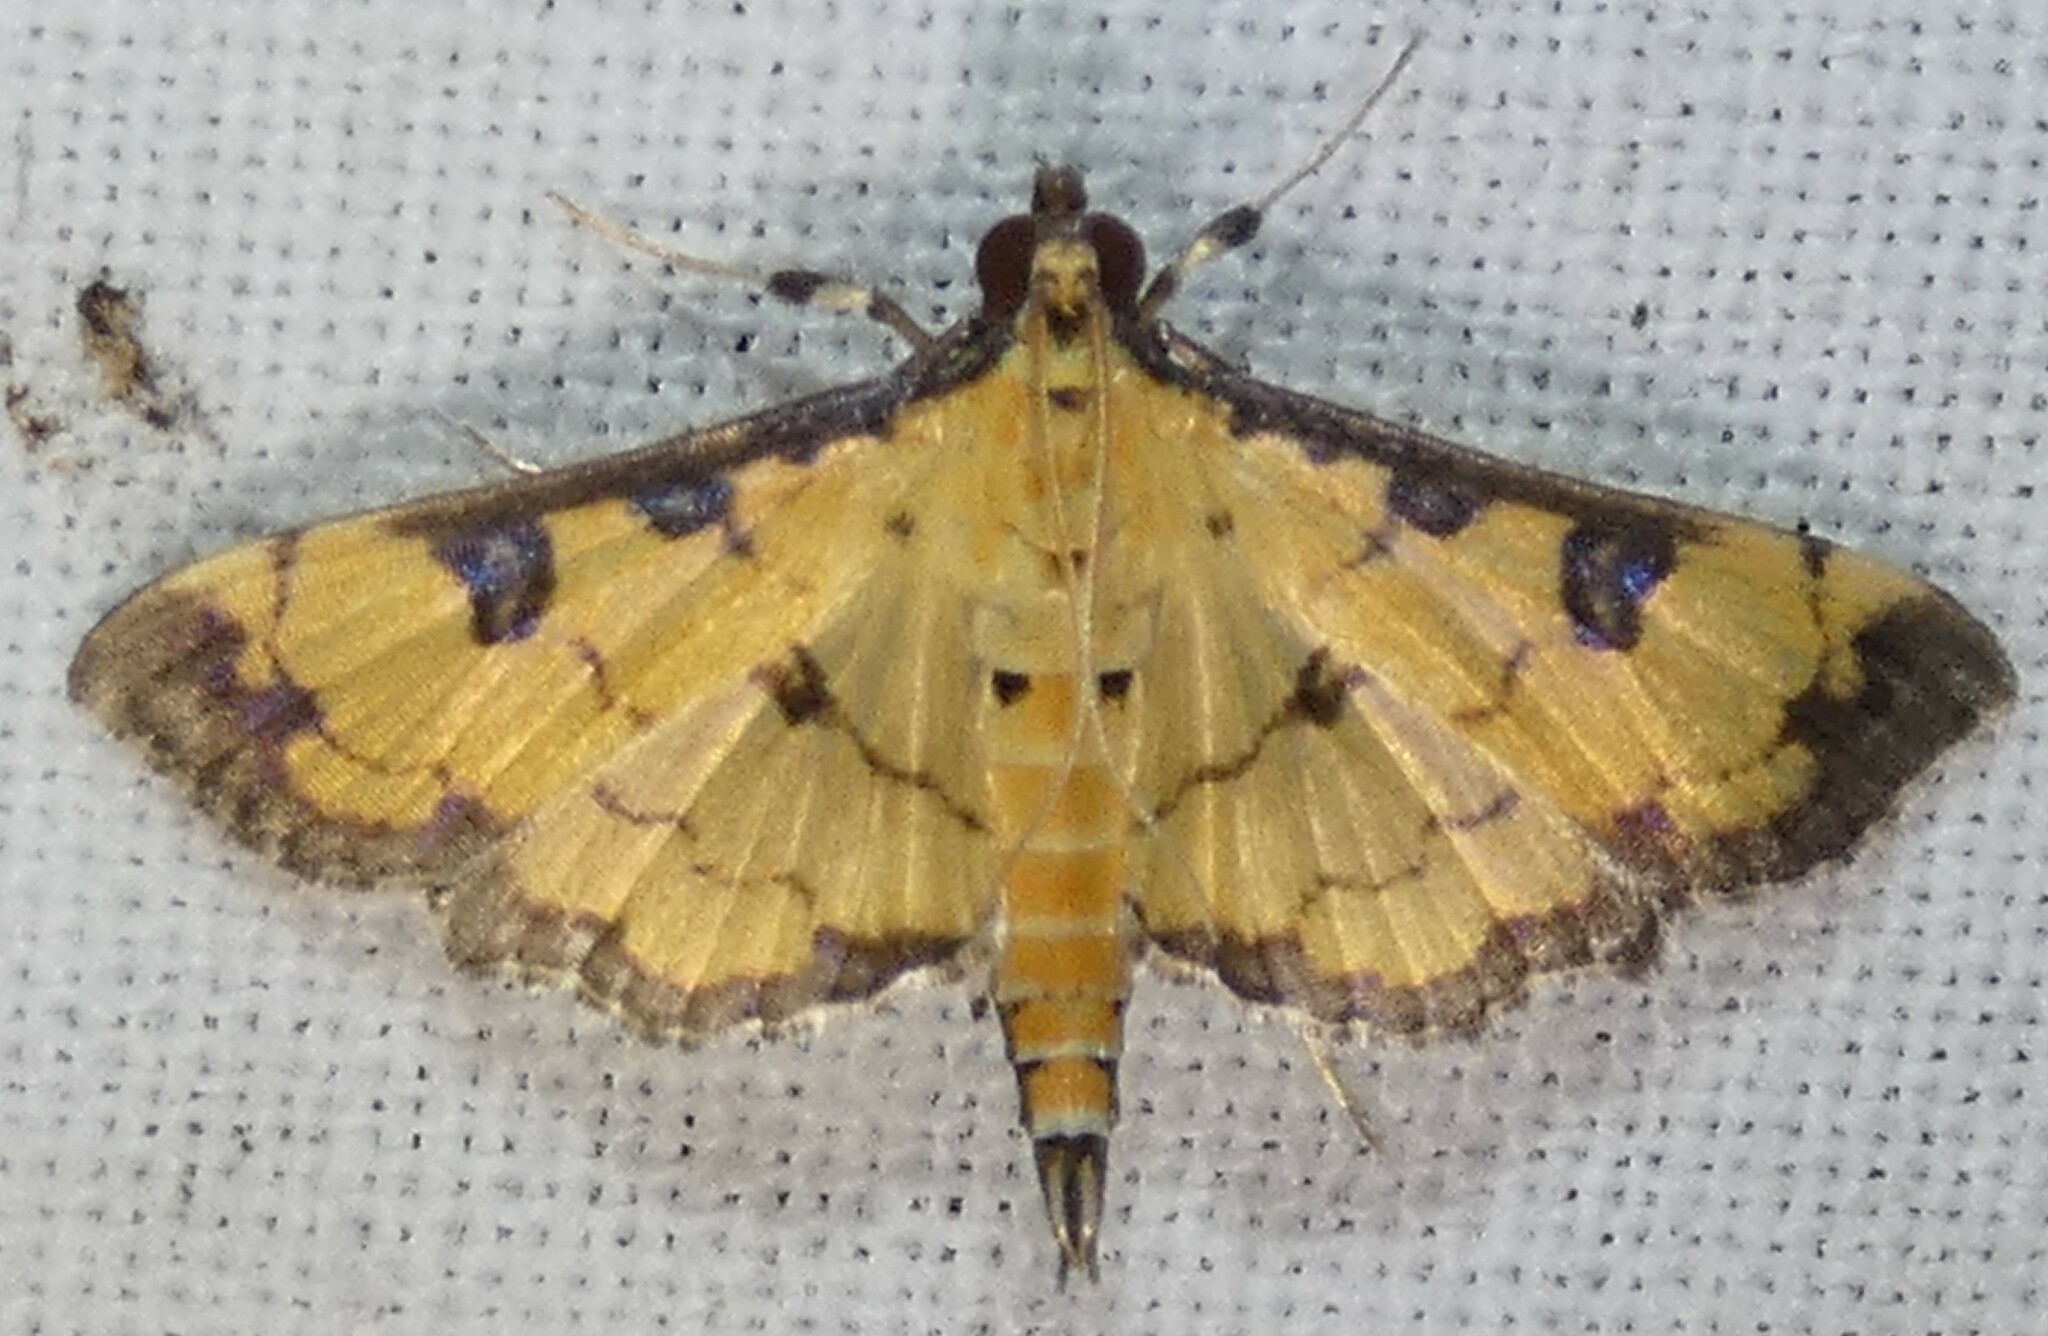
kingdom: Animalia
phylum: Arthropoda
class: Insecta
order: Lepidoptera
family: Crambidae
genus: Ategumia
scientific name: Ategumia ebulealis
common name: Moth
